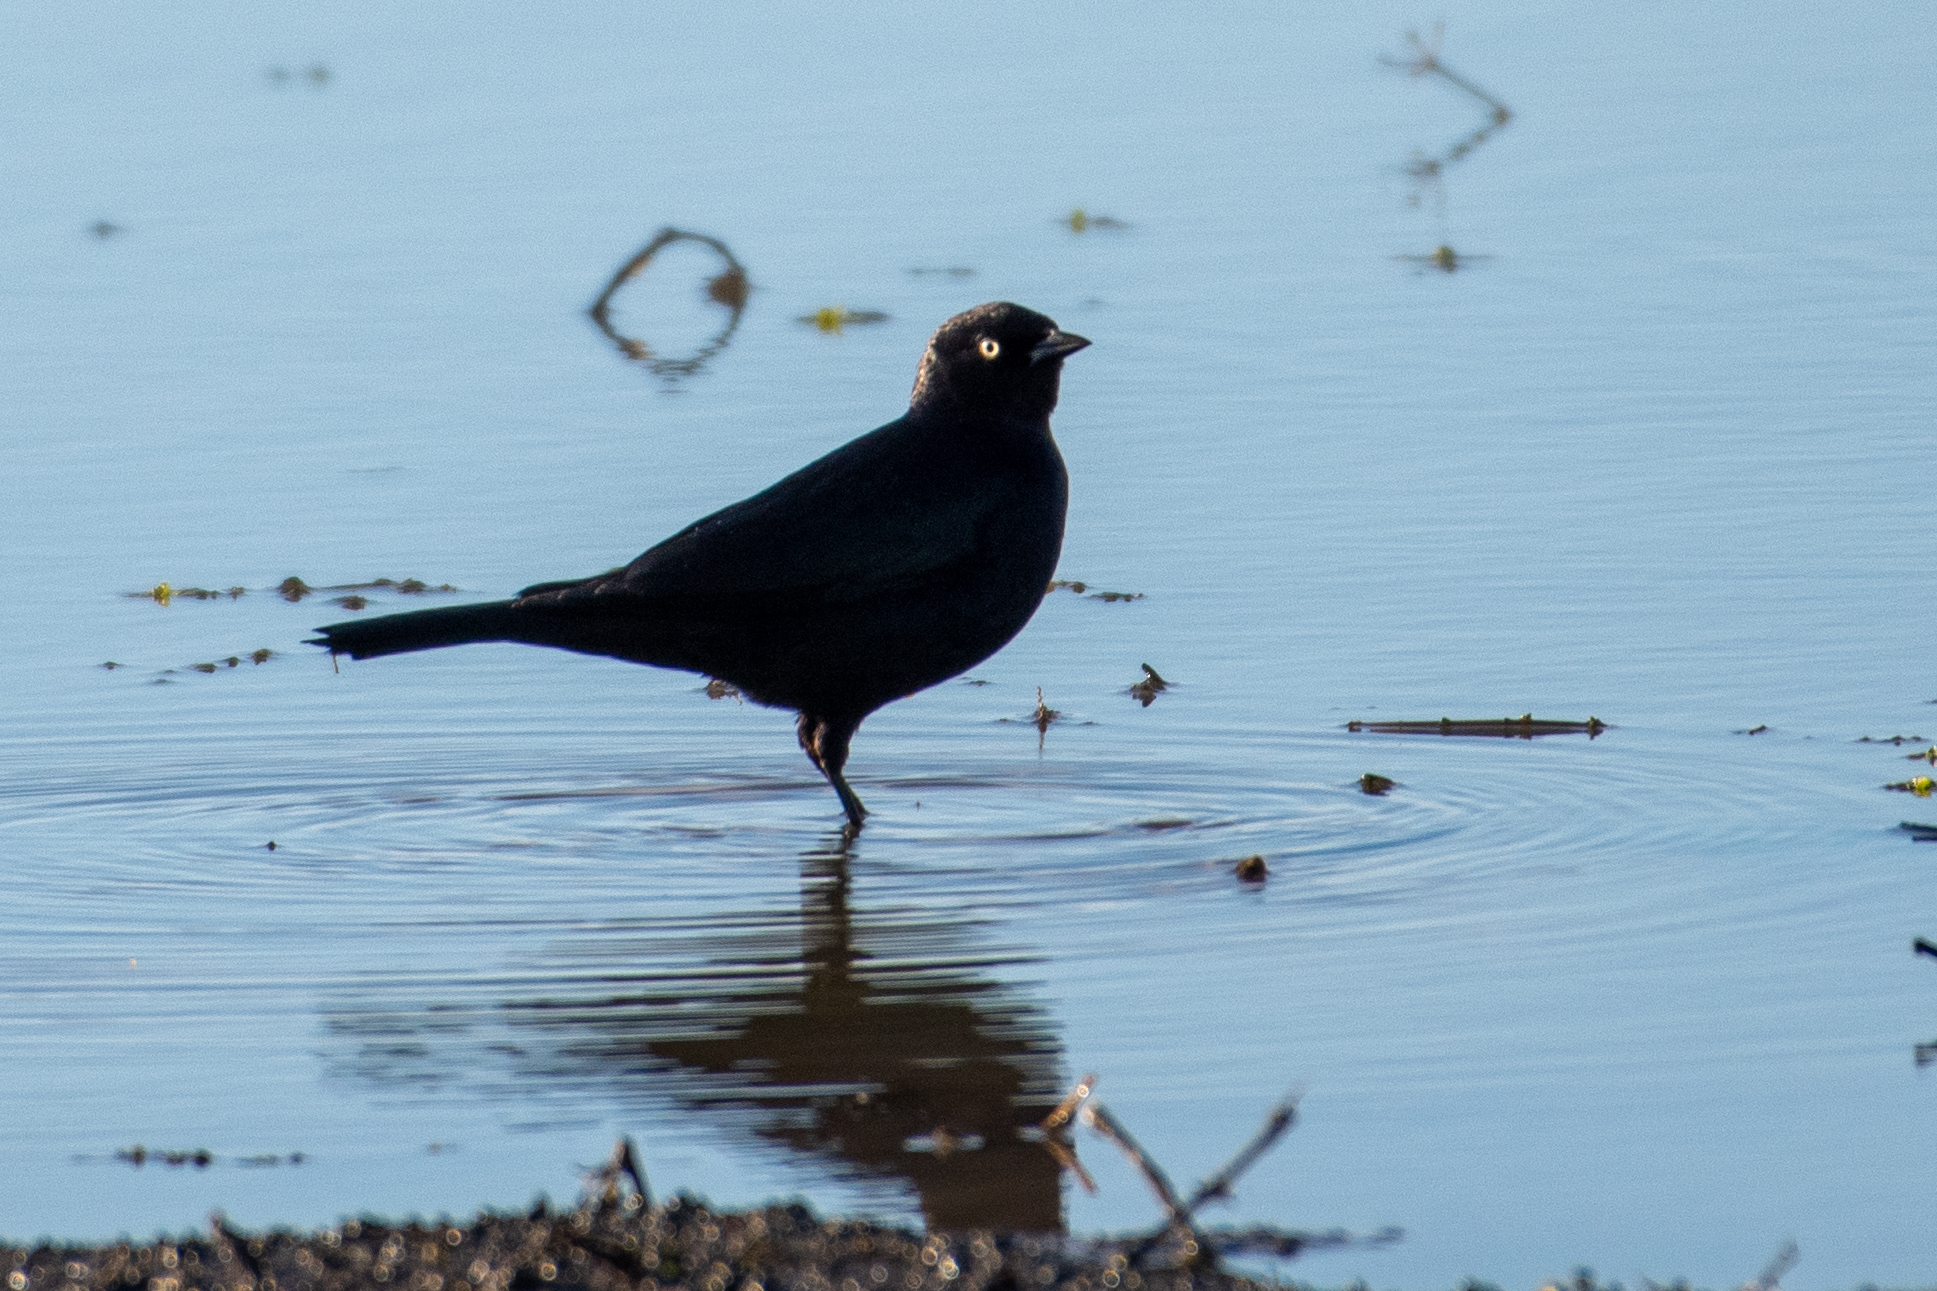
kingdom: Animalia
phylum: Chordata
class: Aves
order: Passeriformes
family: Icteridae
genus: Euphagus
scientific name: Euphagus cyanocephalus
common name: Brewer's blackbird
